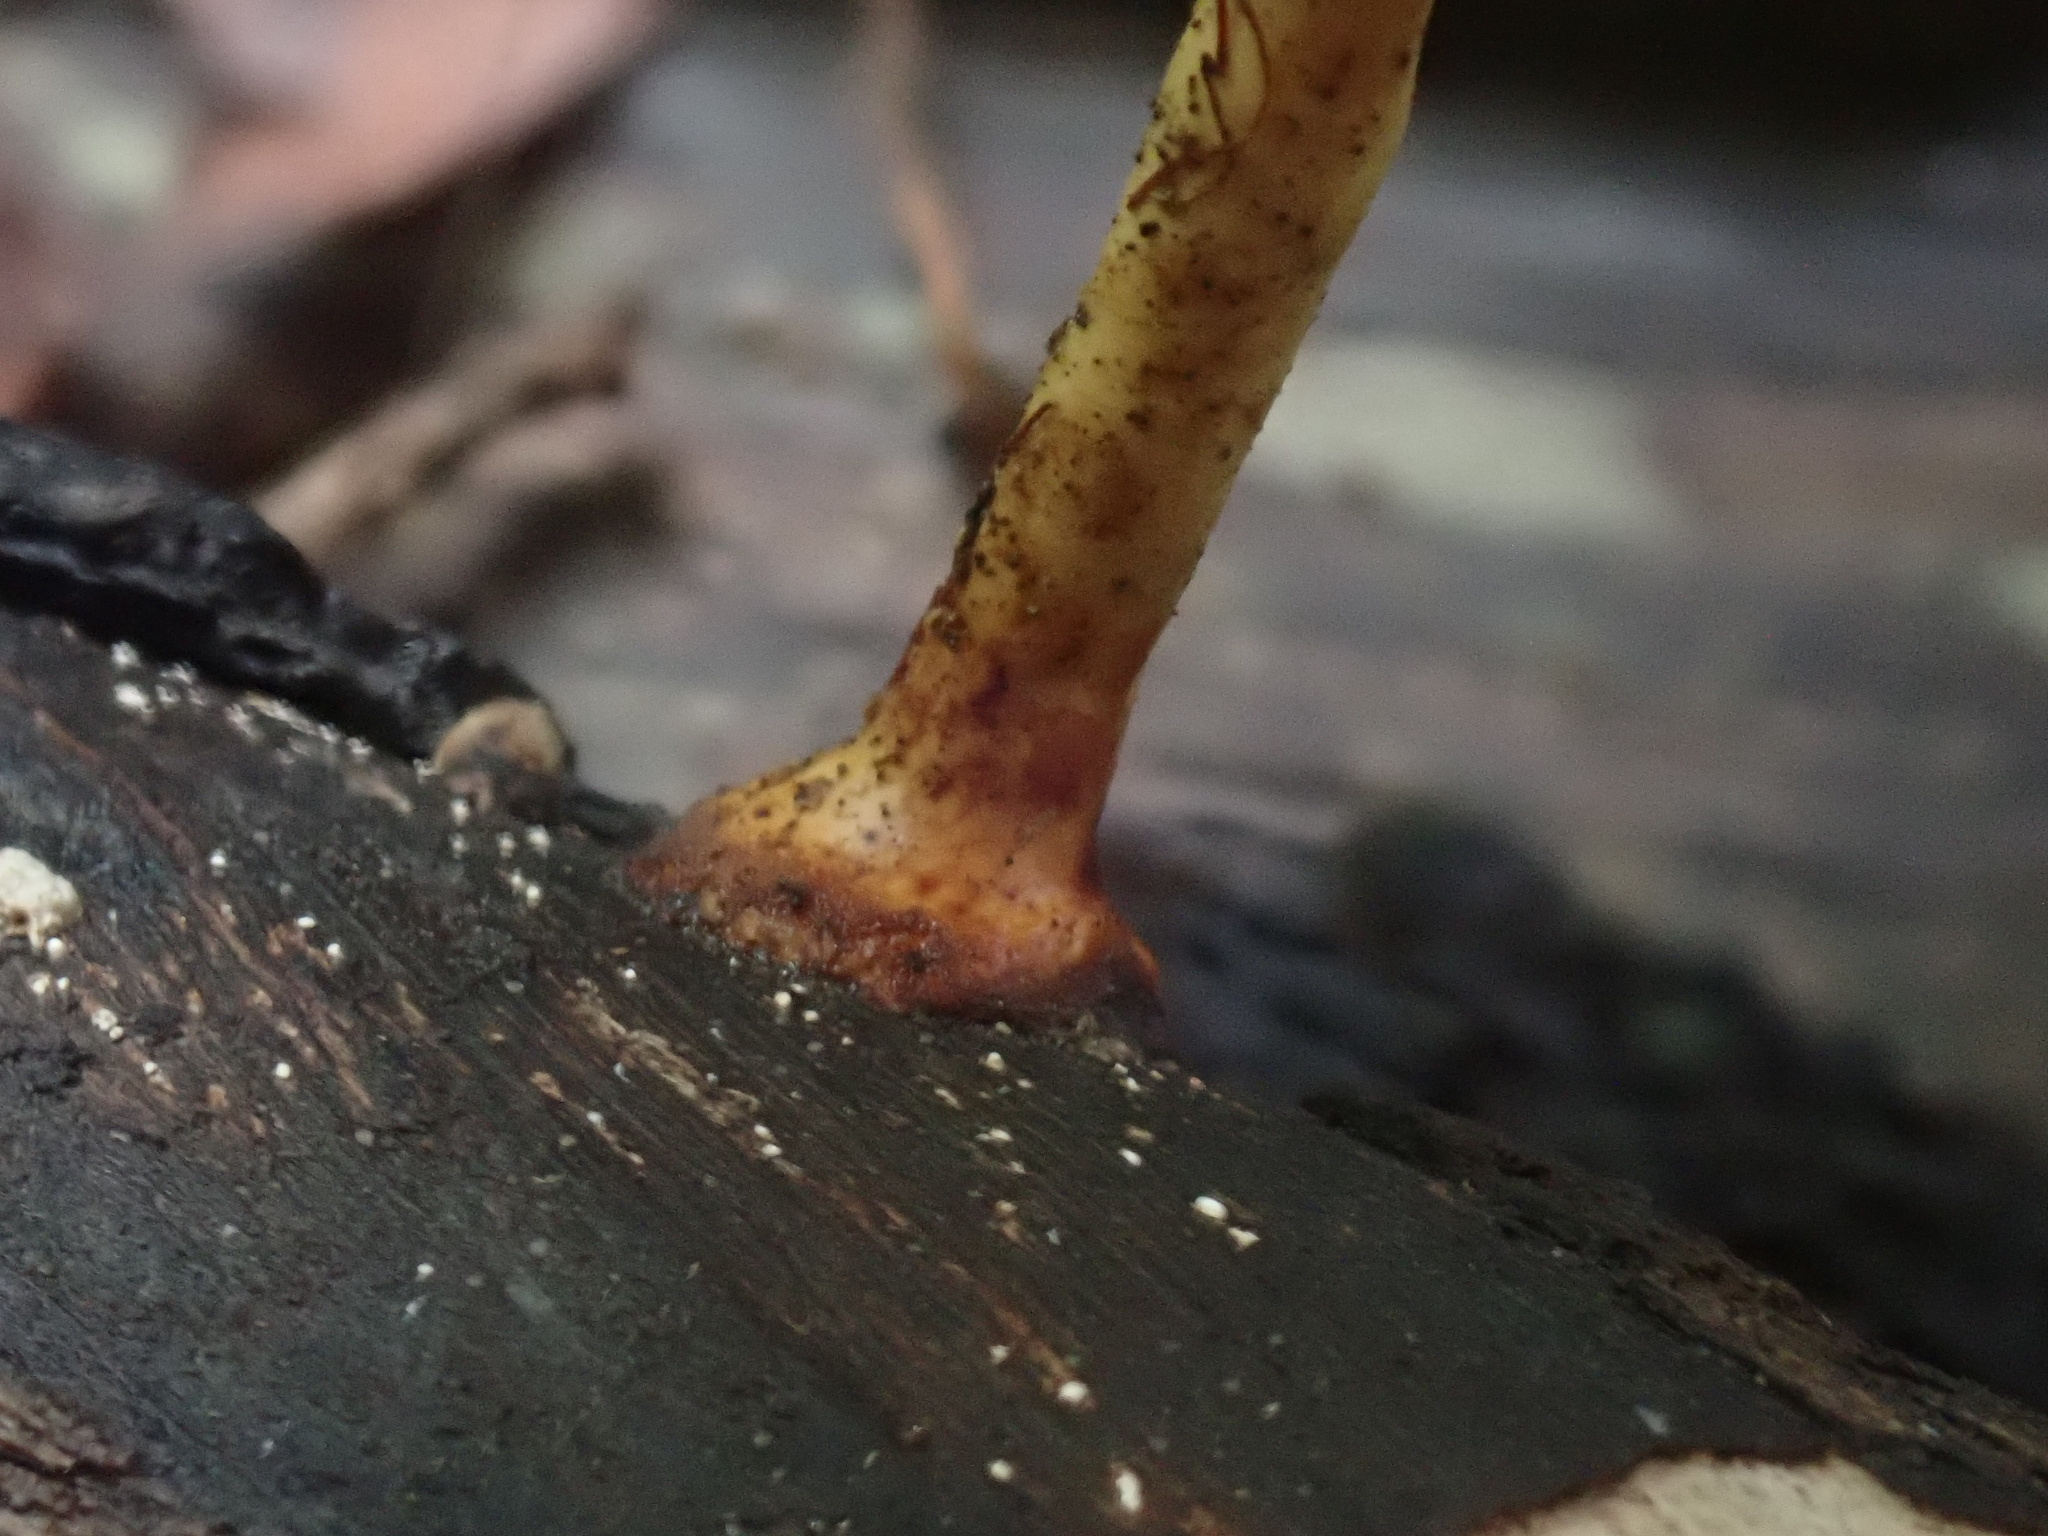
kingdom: Fungi
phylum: Basidiomycota
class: Agaricomycetes
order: Polyporales
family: Polyporaceae
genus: Microporus
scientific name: Microporus xanthopus
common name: Yellow-stemmed micropore
